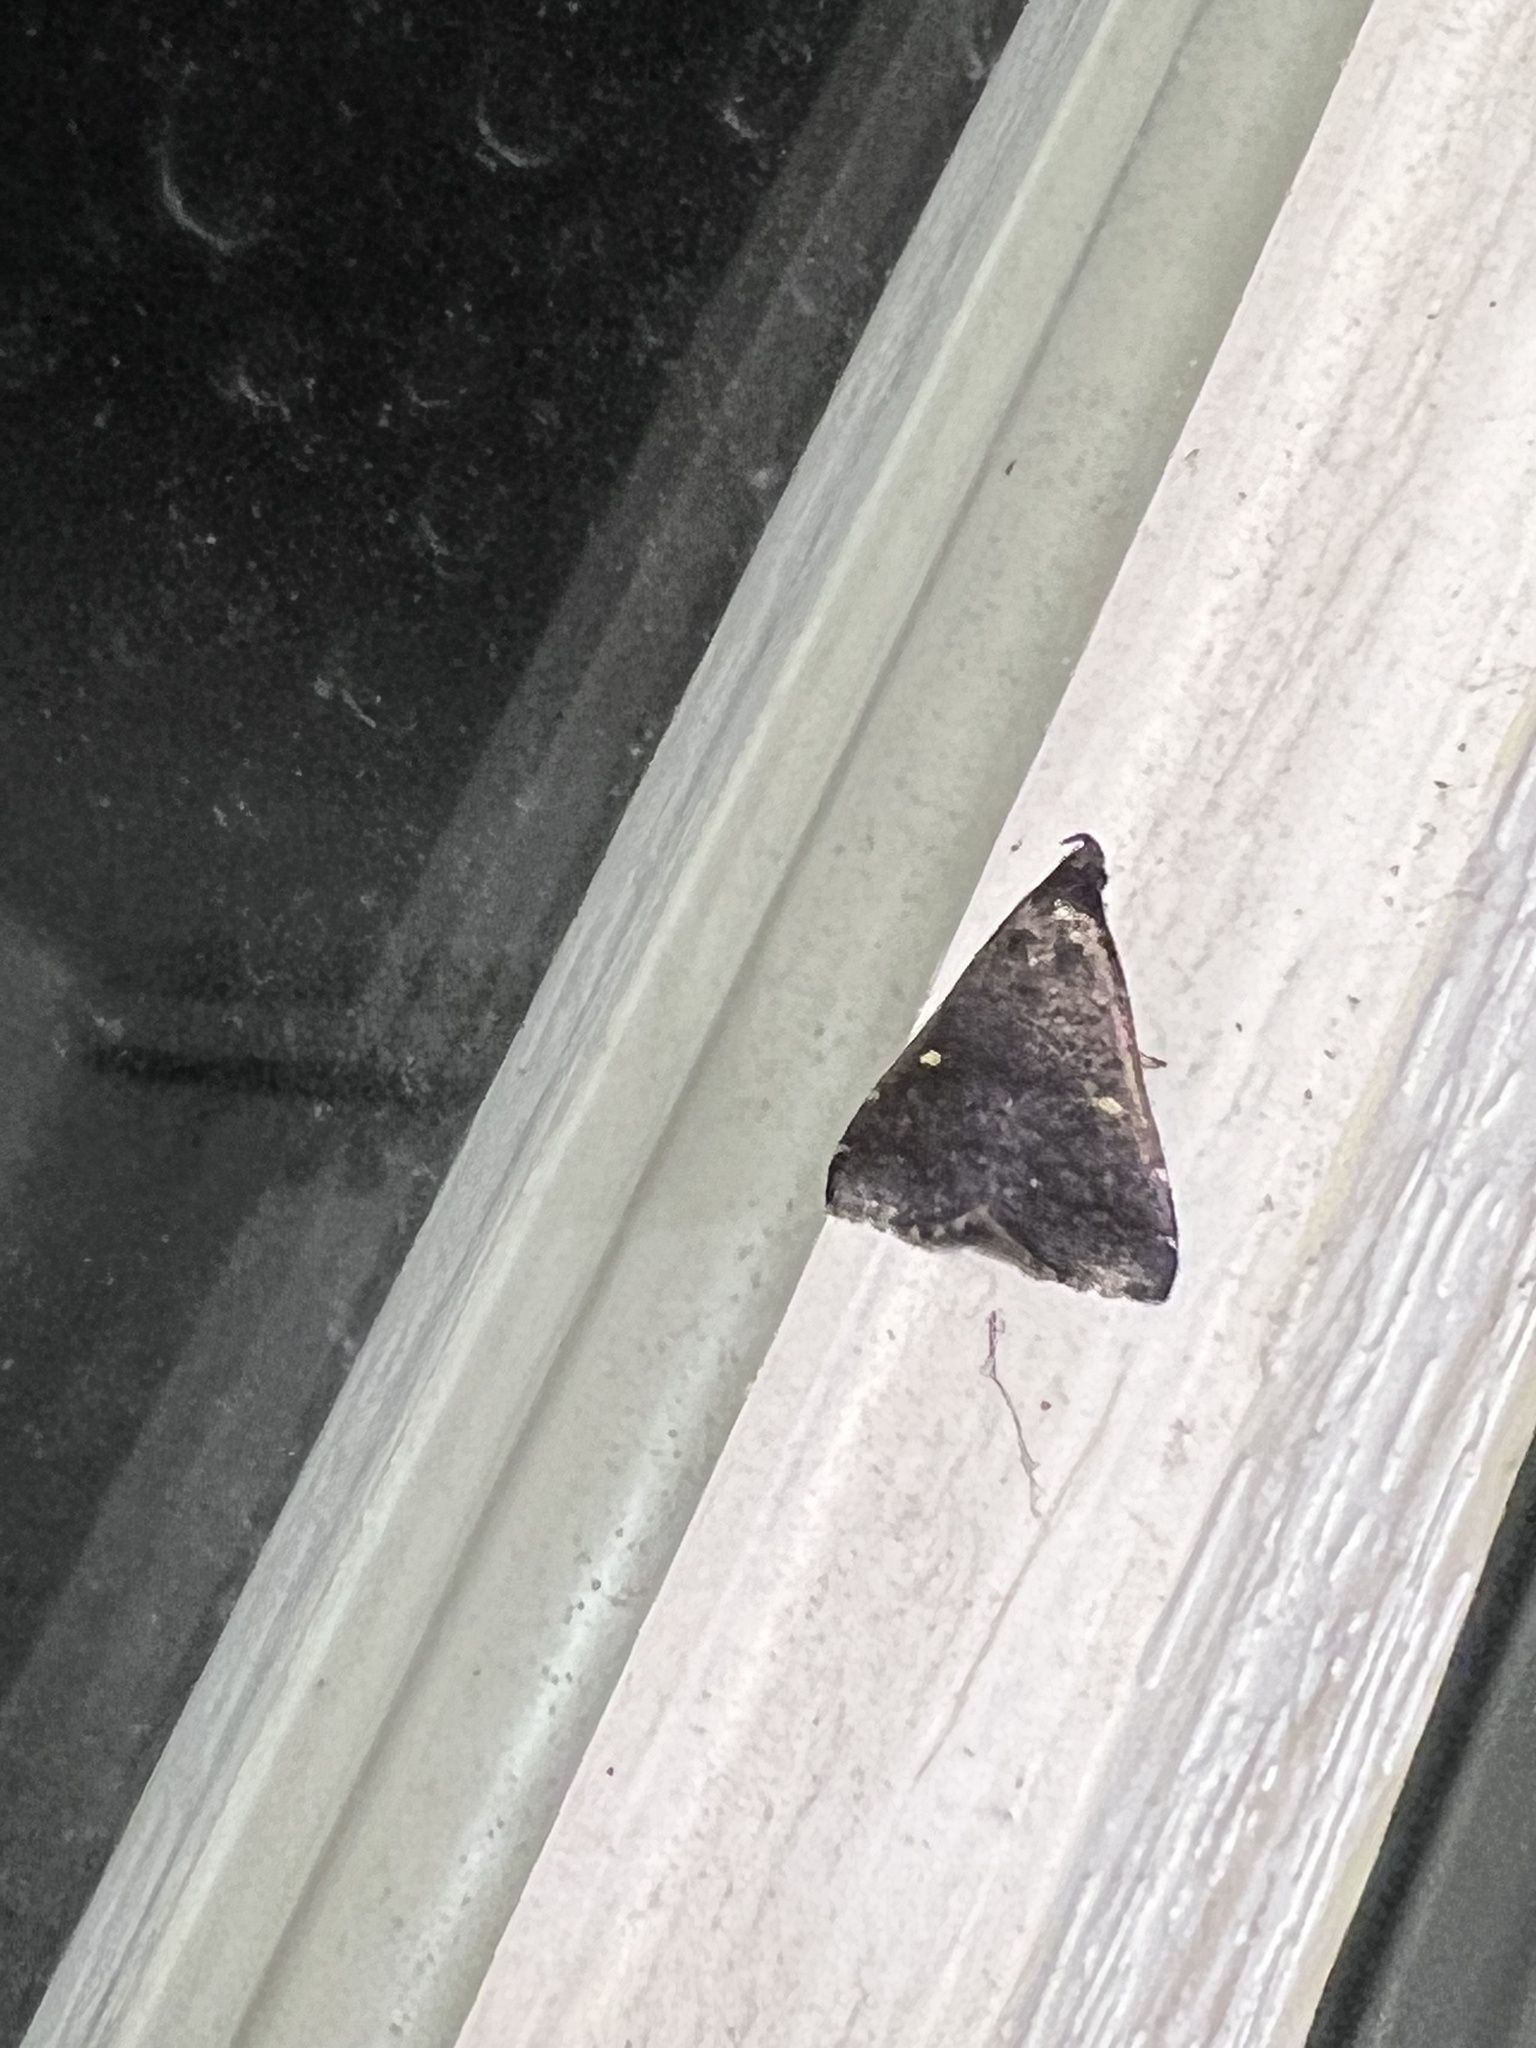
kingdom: Animalia
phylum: Arthropoda
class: Insecta
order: Lepidoptera
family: Erebidae
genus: Tetanolita
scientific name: Tetanolita mynesalis
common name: Smoky tetanolita moth
